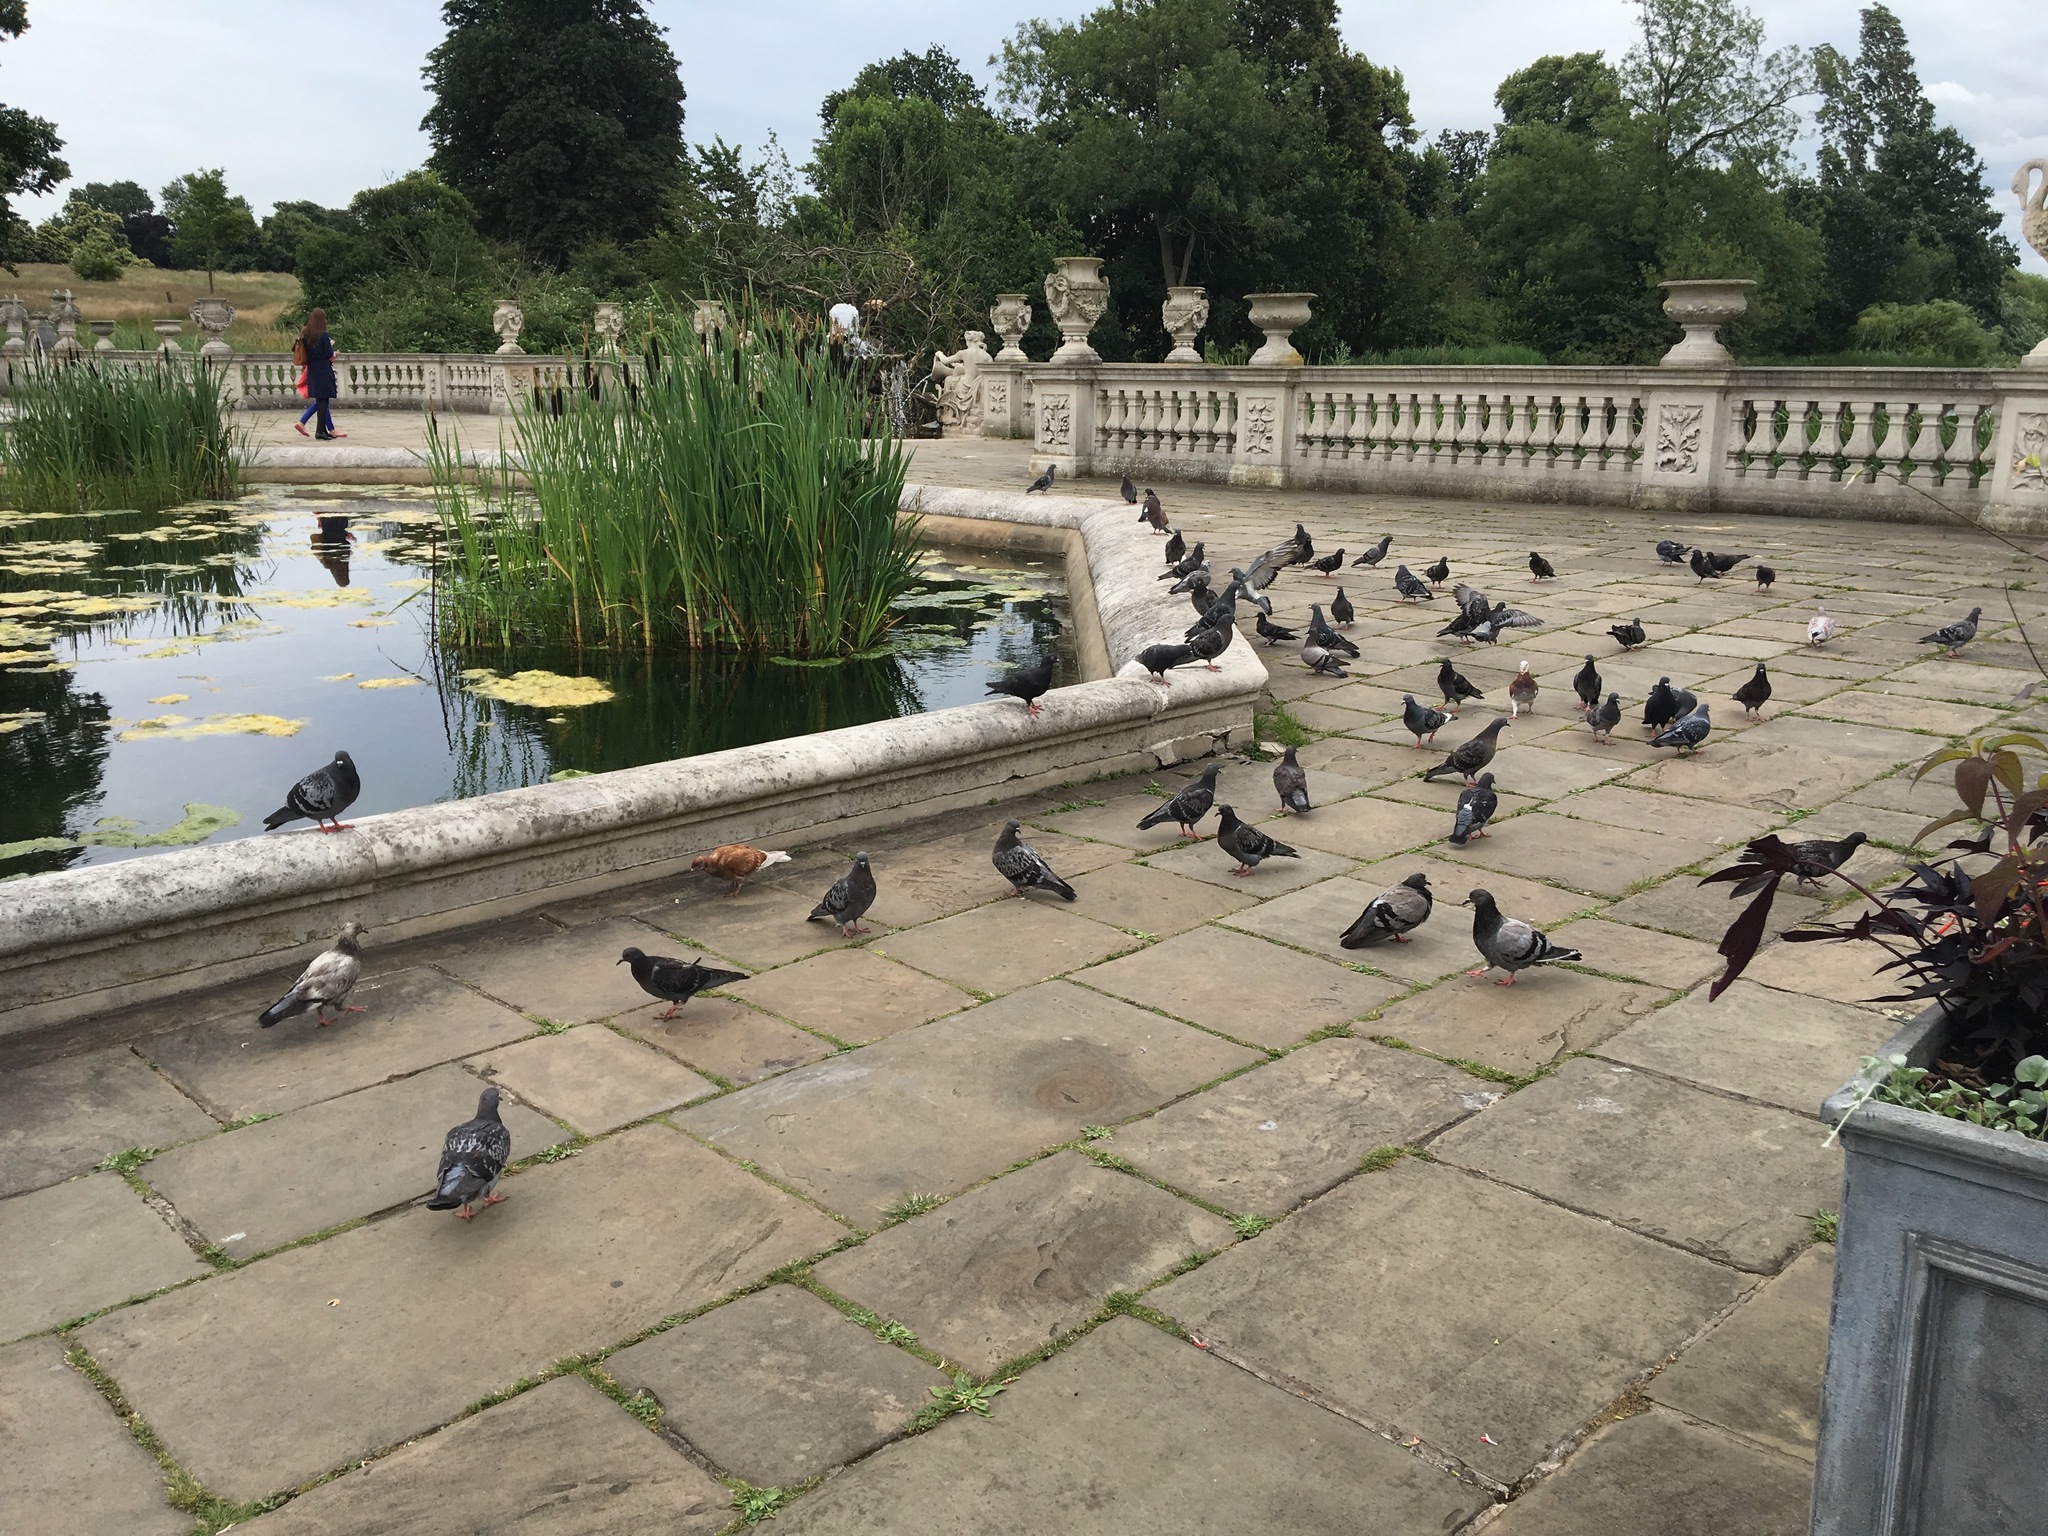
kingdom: Animalia
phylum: Chordata
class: Aves
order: Columbiformes
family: Columbidae
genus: Columba
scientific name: Columba livia
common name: Rock pigeon
